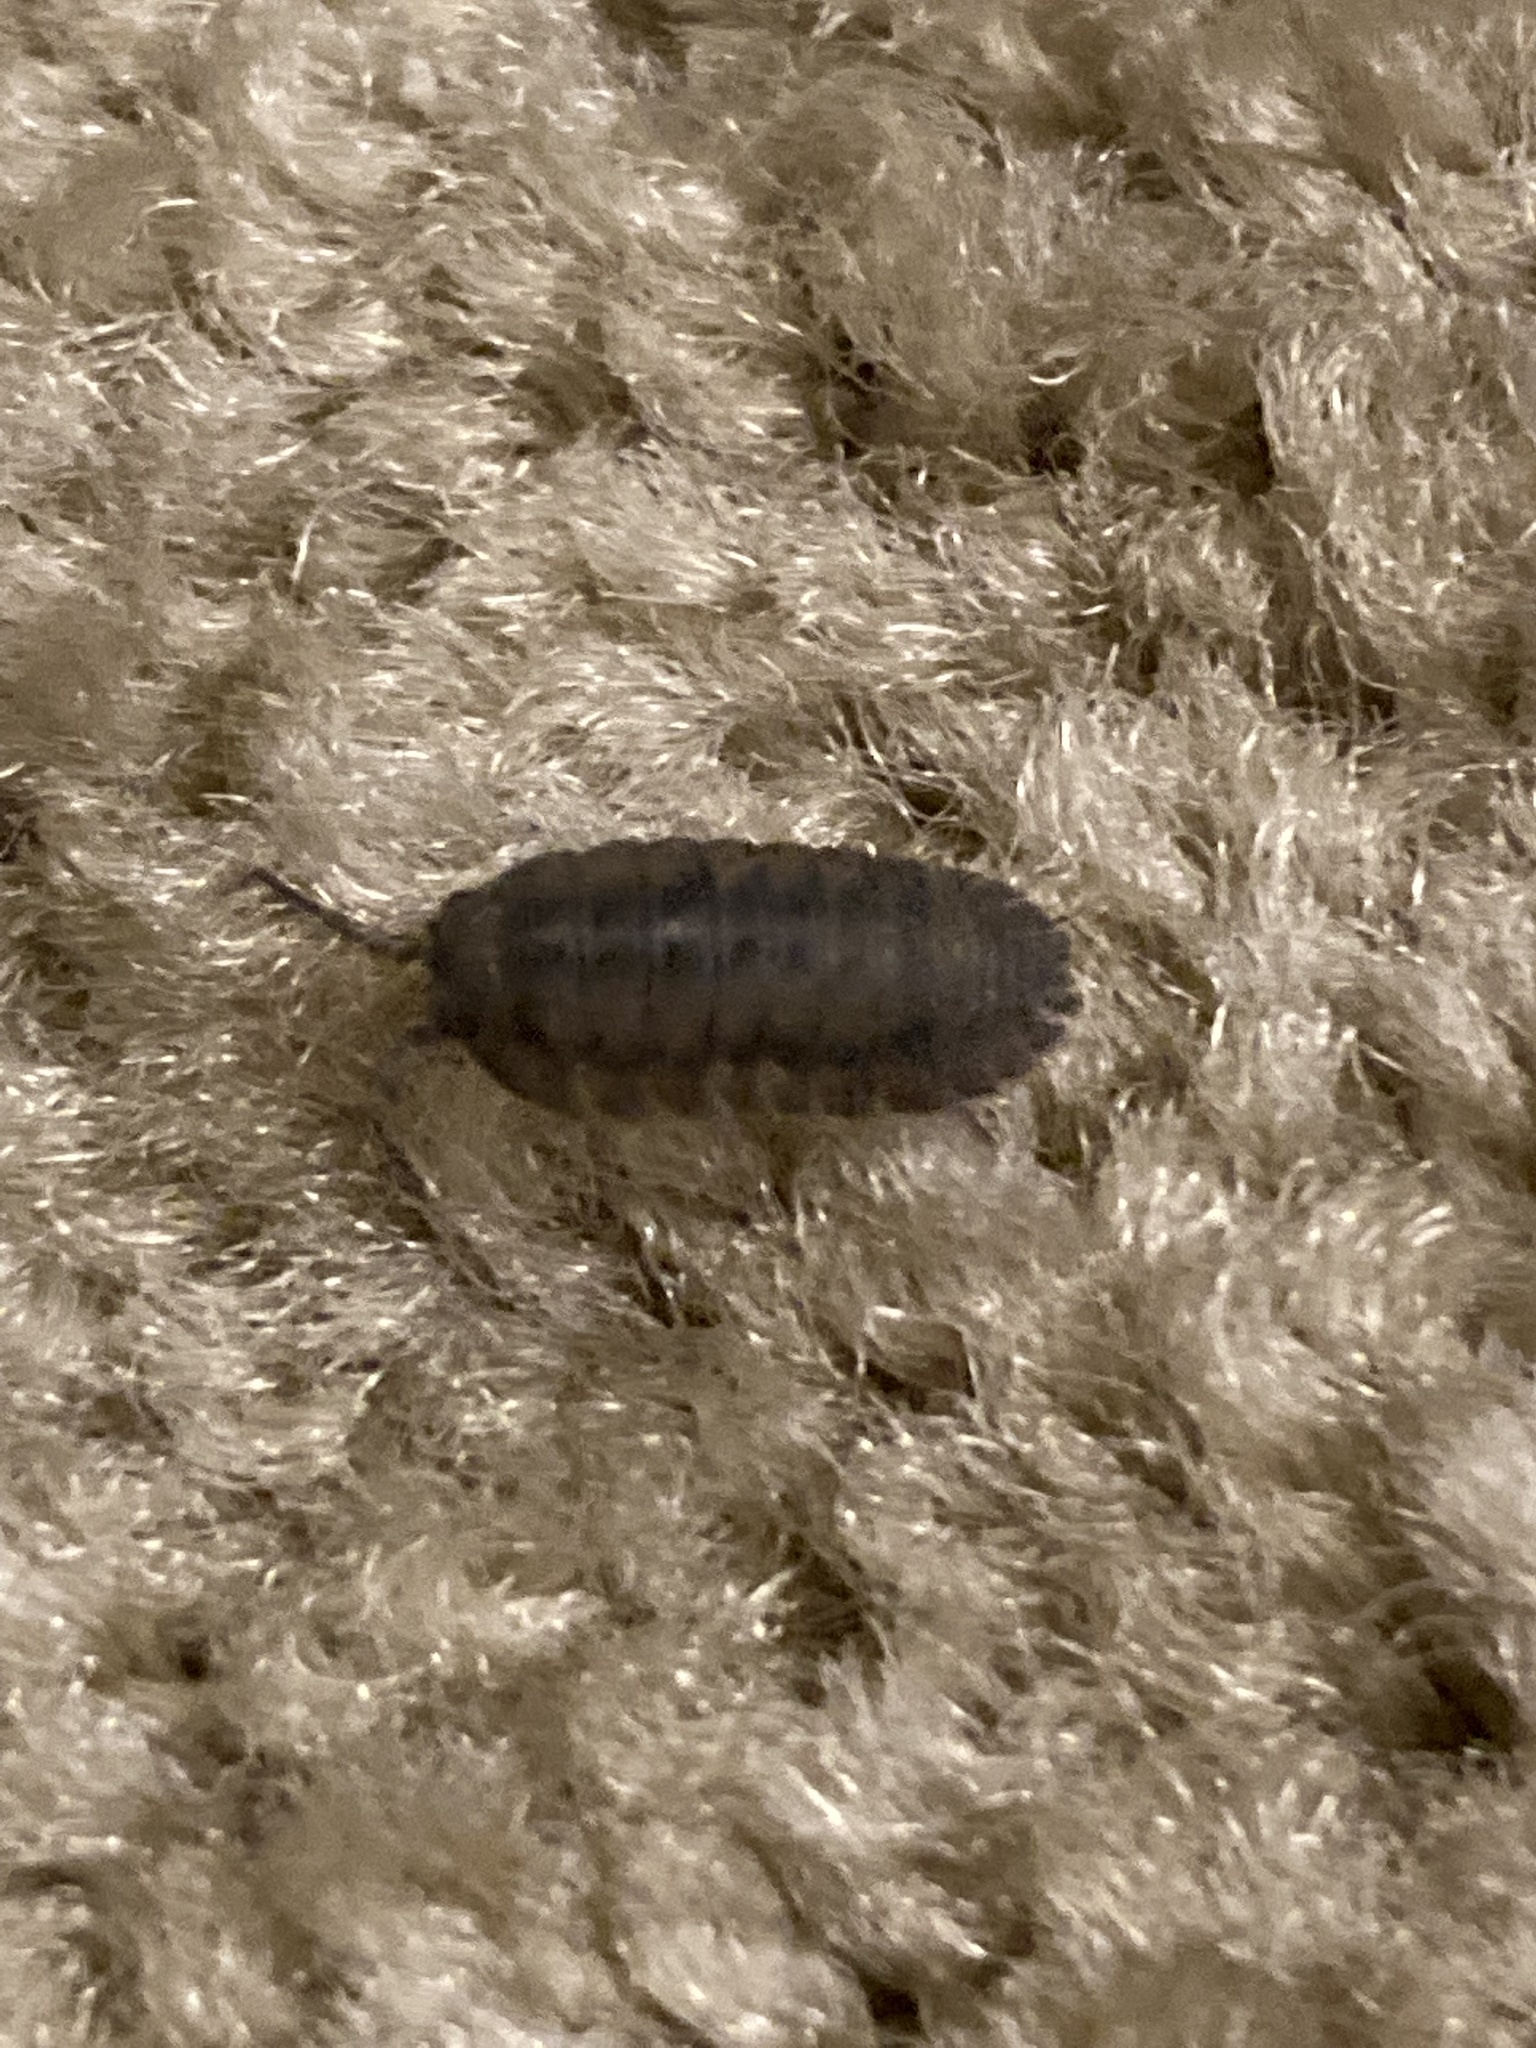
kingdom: Animalia
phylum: Arthropoda
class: Malacostraca
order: Isopoda
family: Armadillidiidae
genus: Armadillidium
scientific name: Armadillidium nasatum
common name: Isopod
